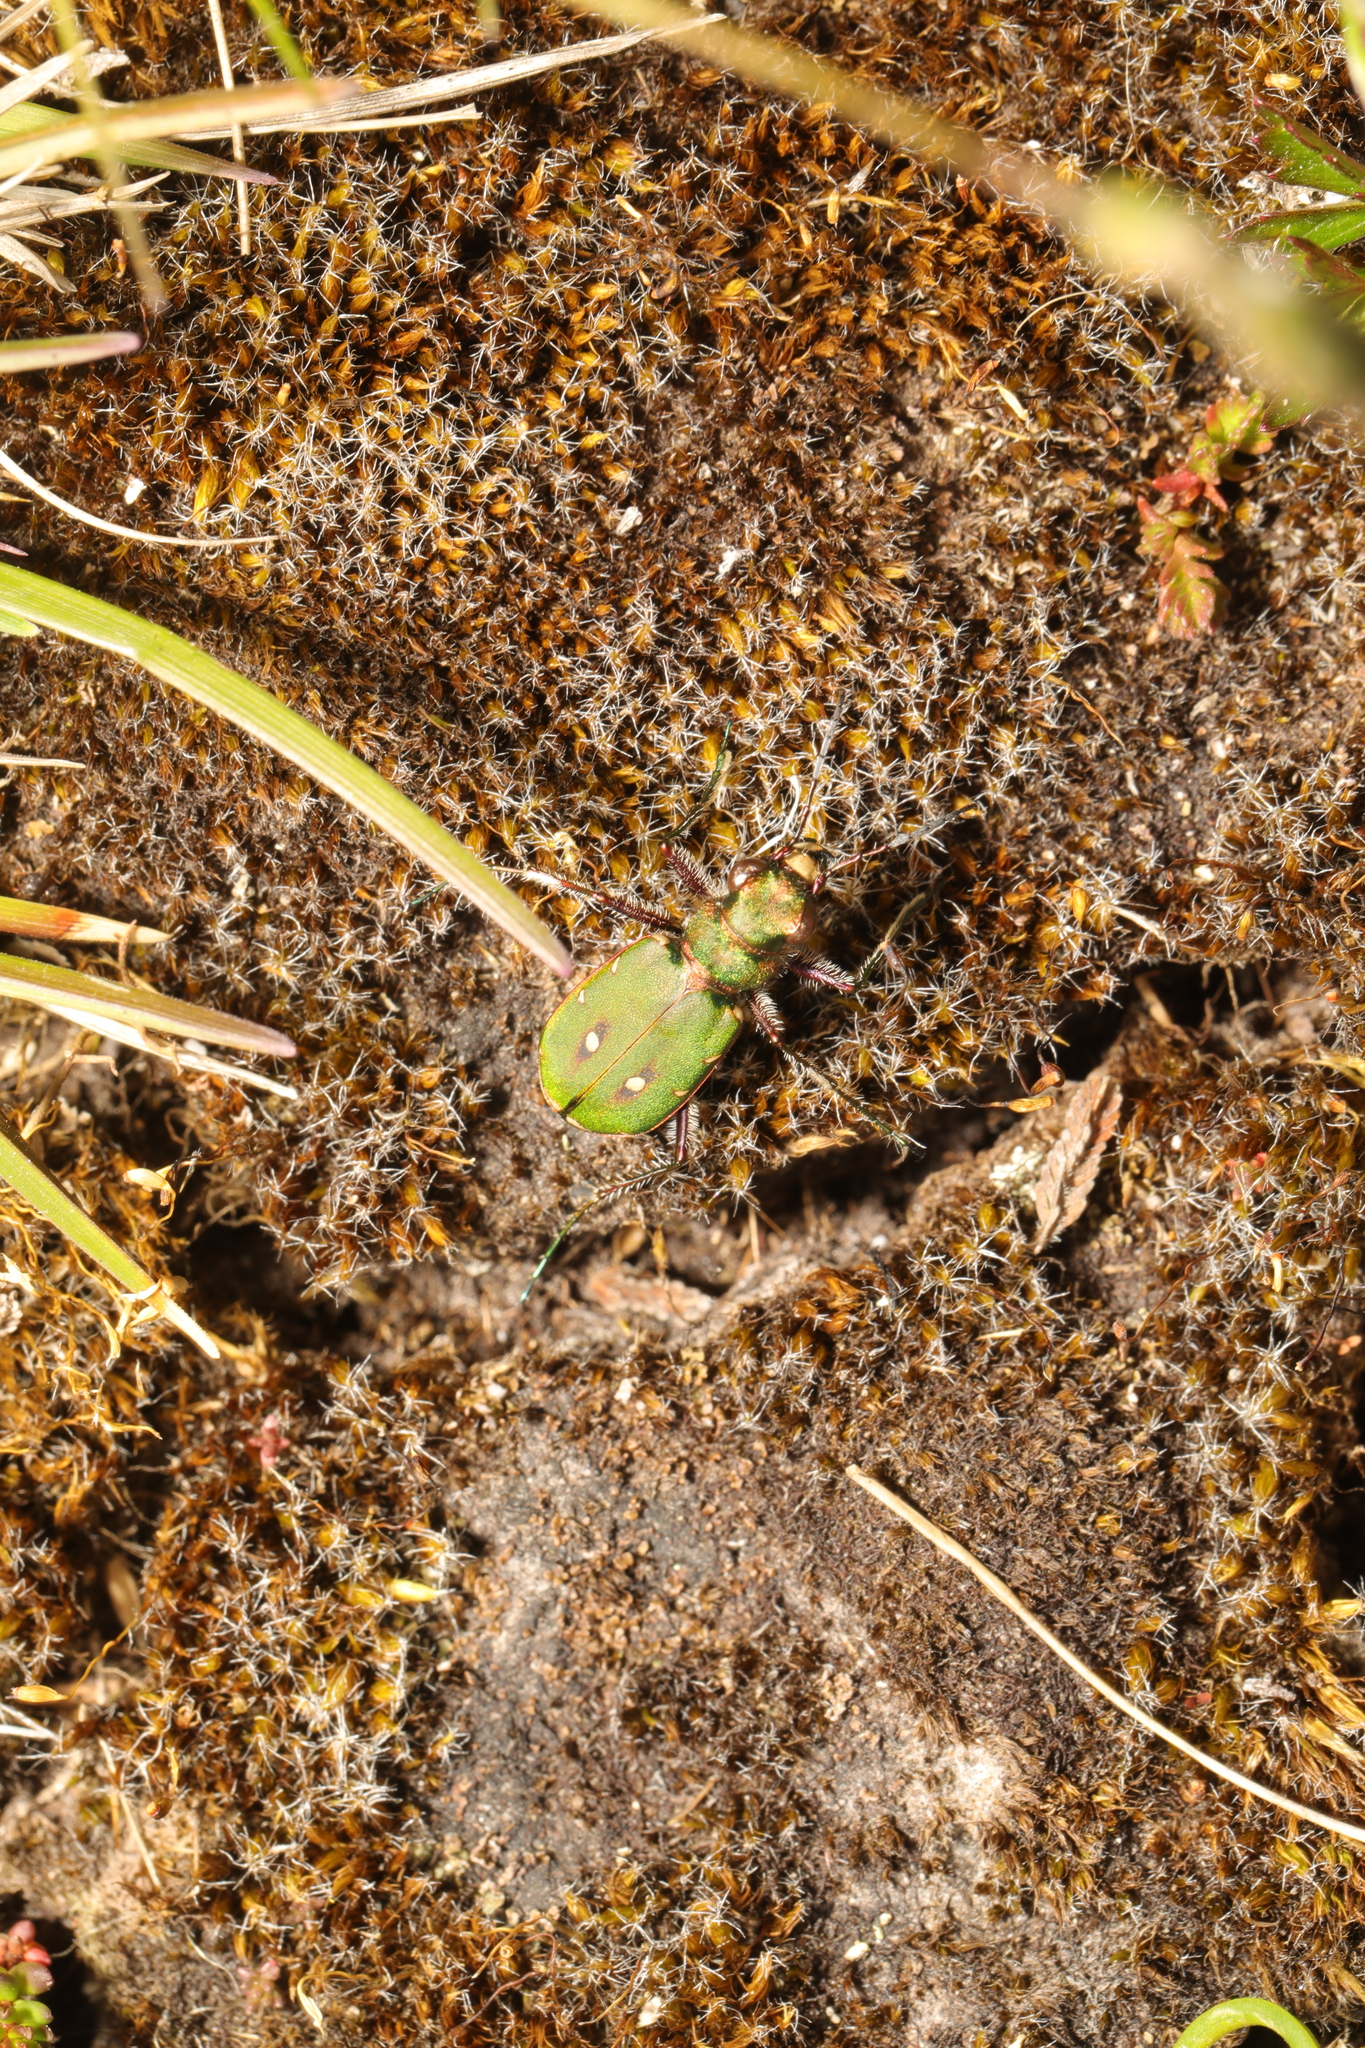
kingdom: Animalia
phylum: Arthropoda
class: Insecta
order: Coleoptera
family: Carabidae
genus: Cicindela
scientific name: Cicindela campestris
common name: Common tiger beetle
